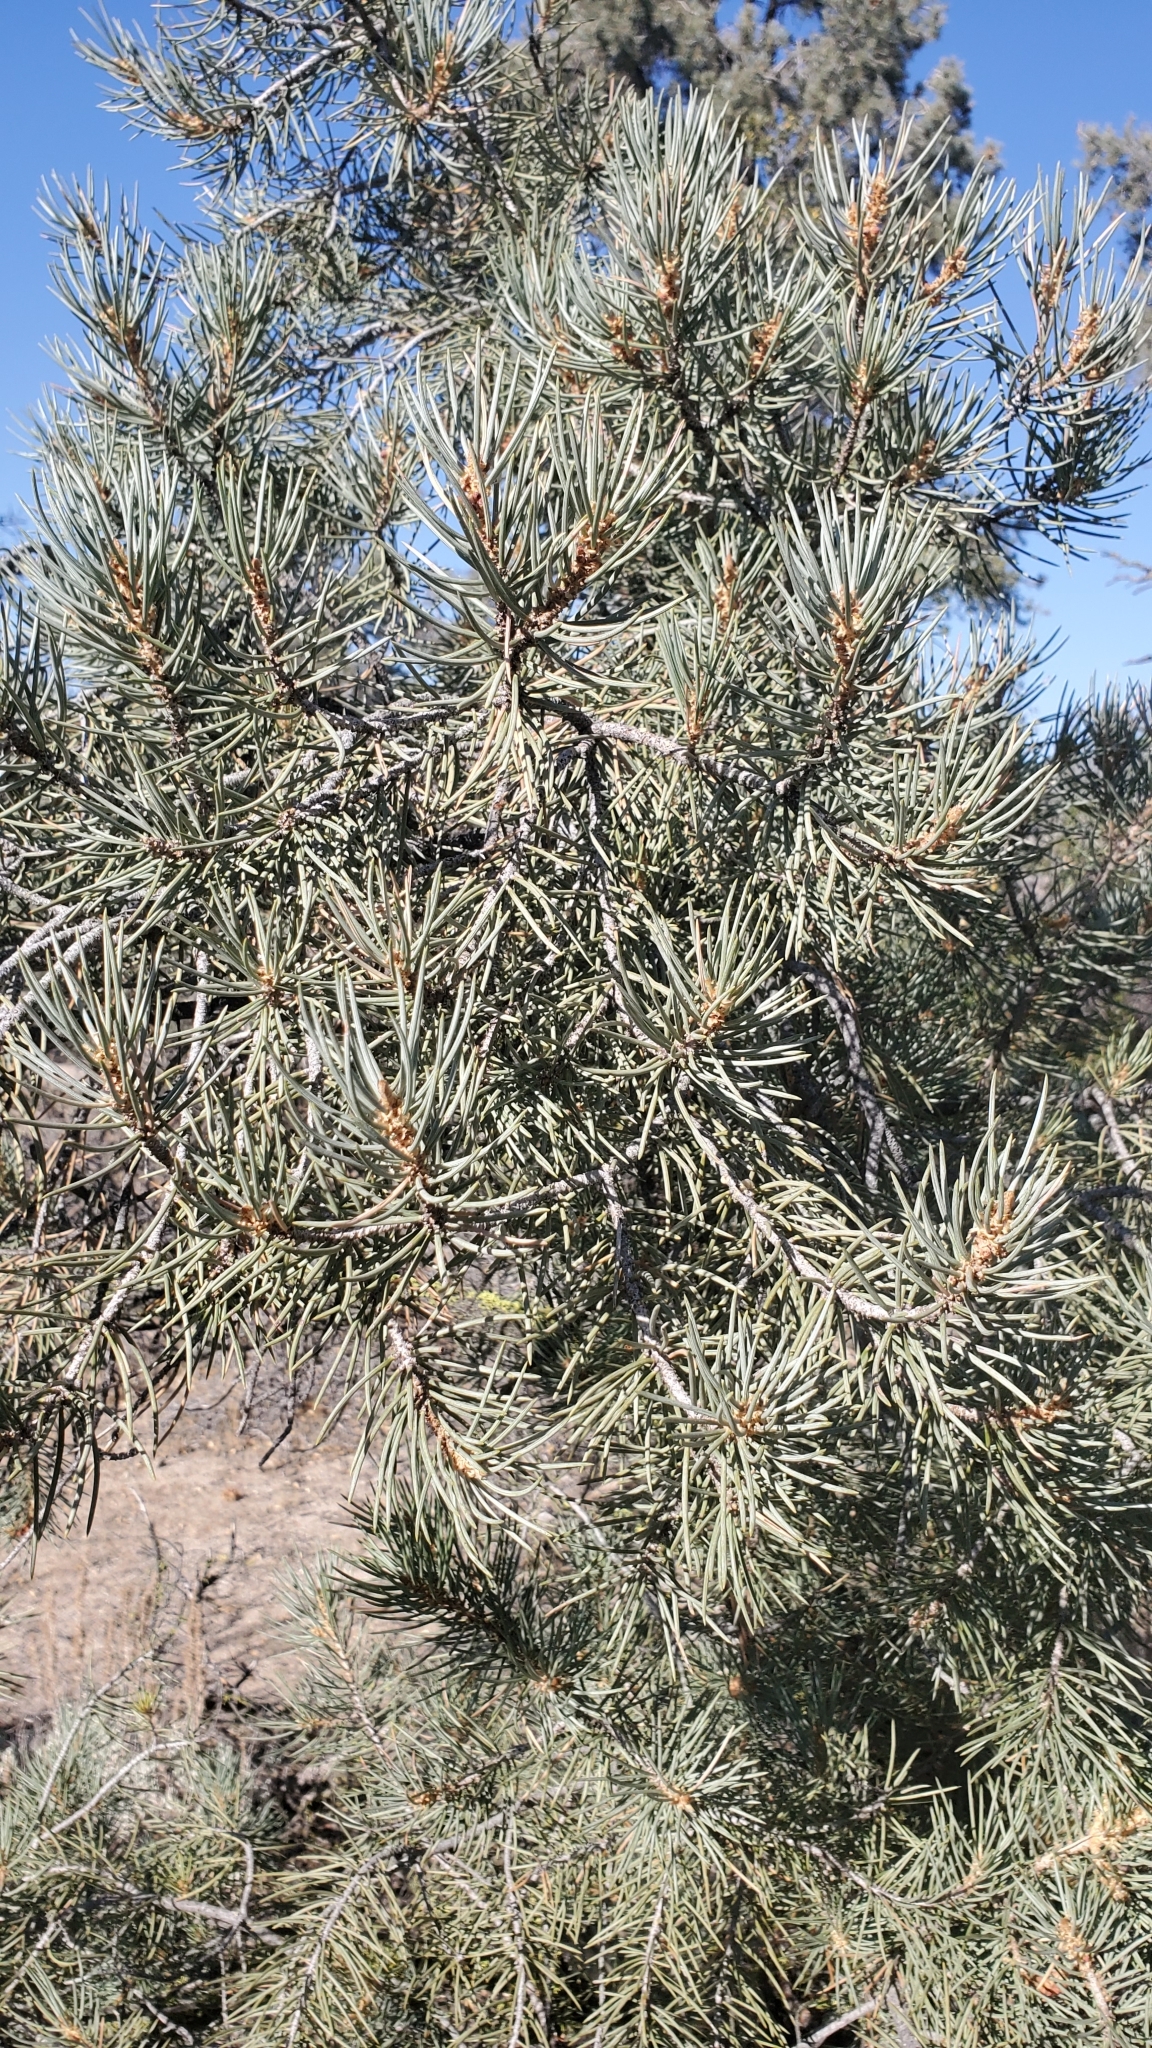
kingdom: Plantae
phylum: Tracheophyta
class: Pinopsida
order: Pinales
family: Pinaceae
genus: Pinus
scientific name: Pinus monophylla
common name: One-leaved nut pine
